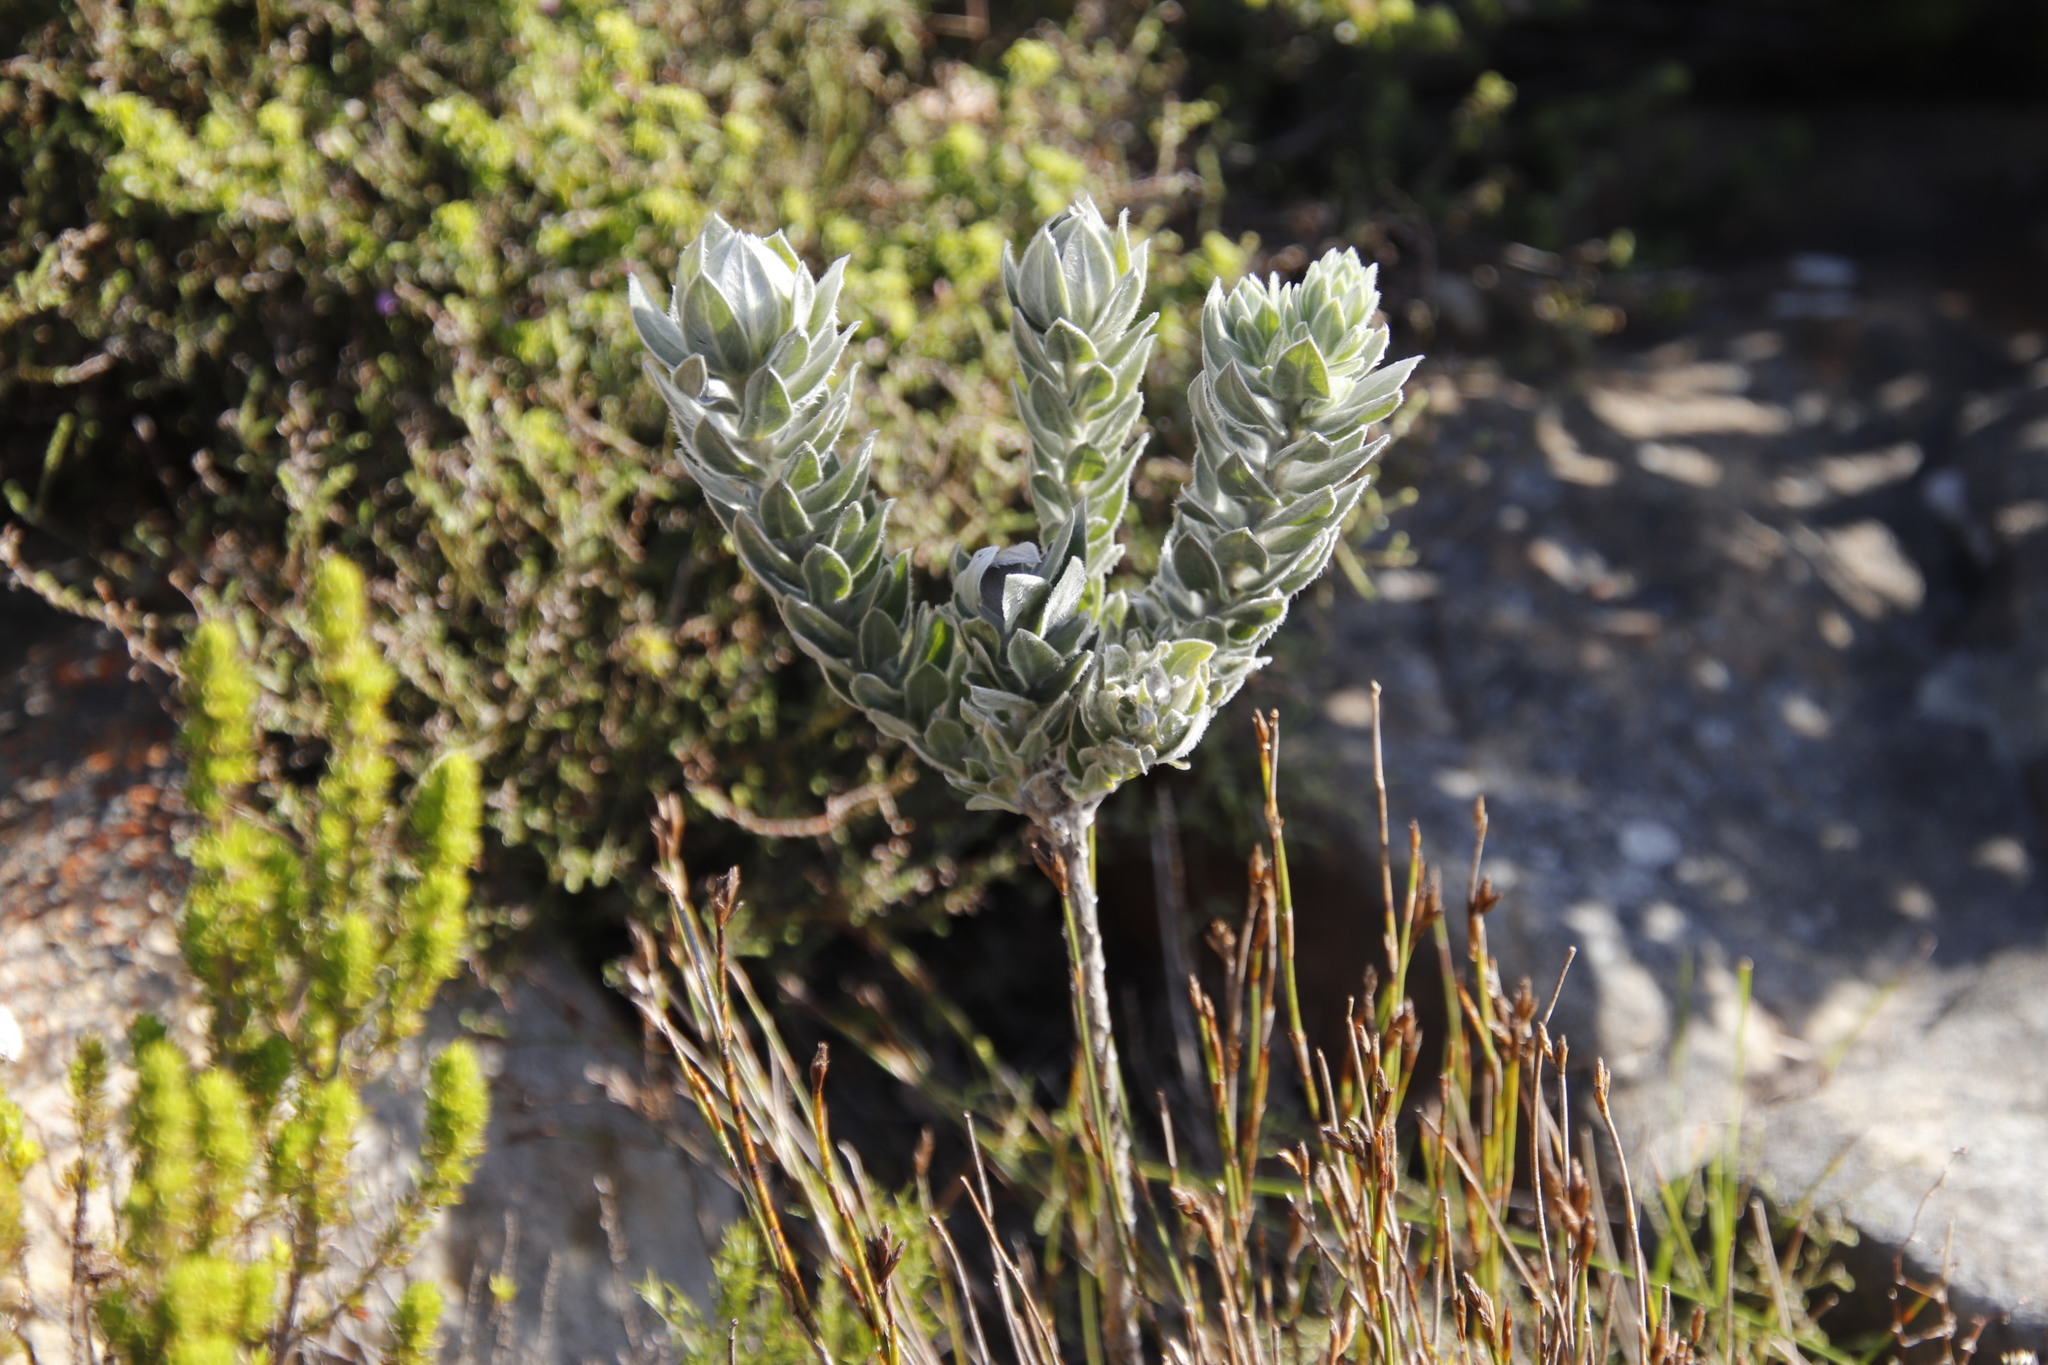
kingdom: Plantae
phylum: Tracheophyta
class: Magnoliopsida
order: Fabales
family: Fabaceae
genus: Xiphotheca
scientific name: Xiphotheca fruticosa
